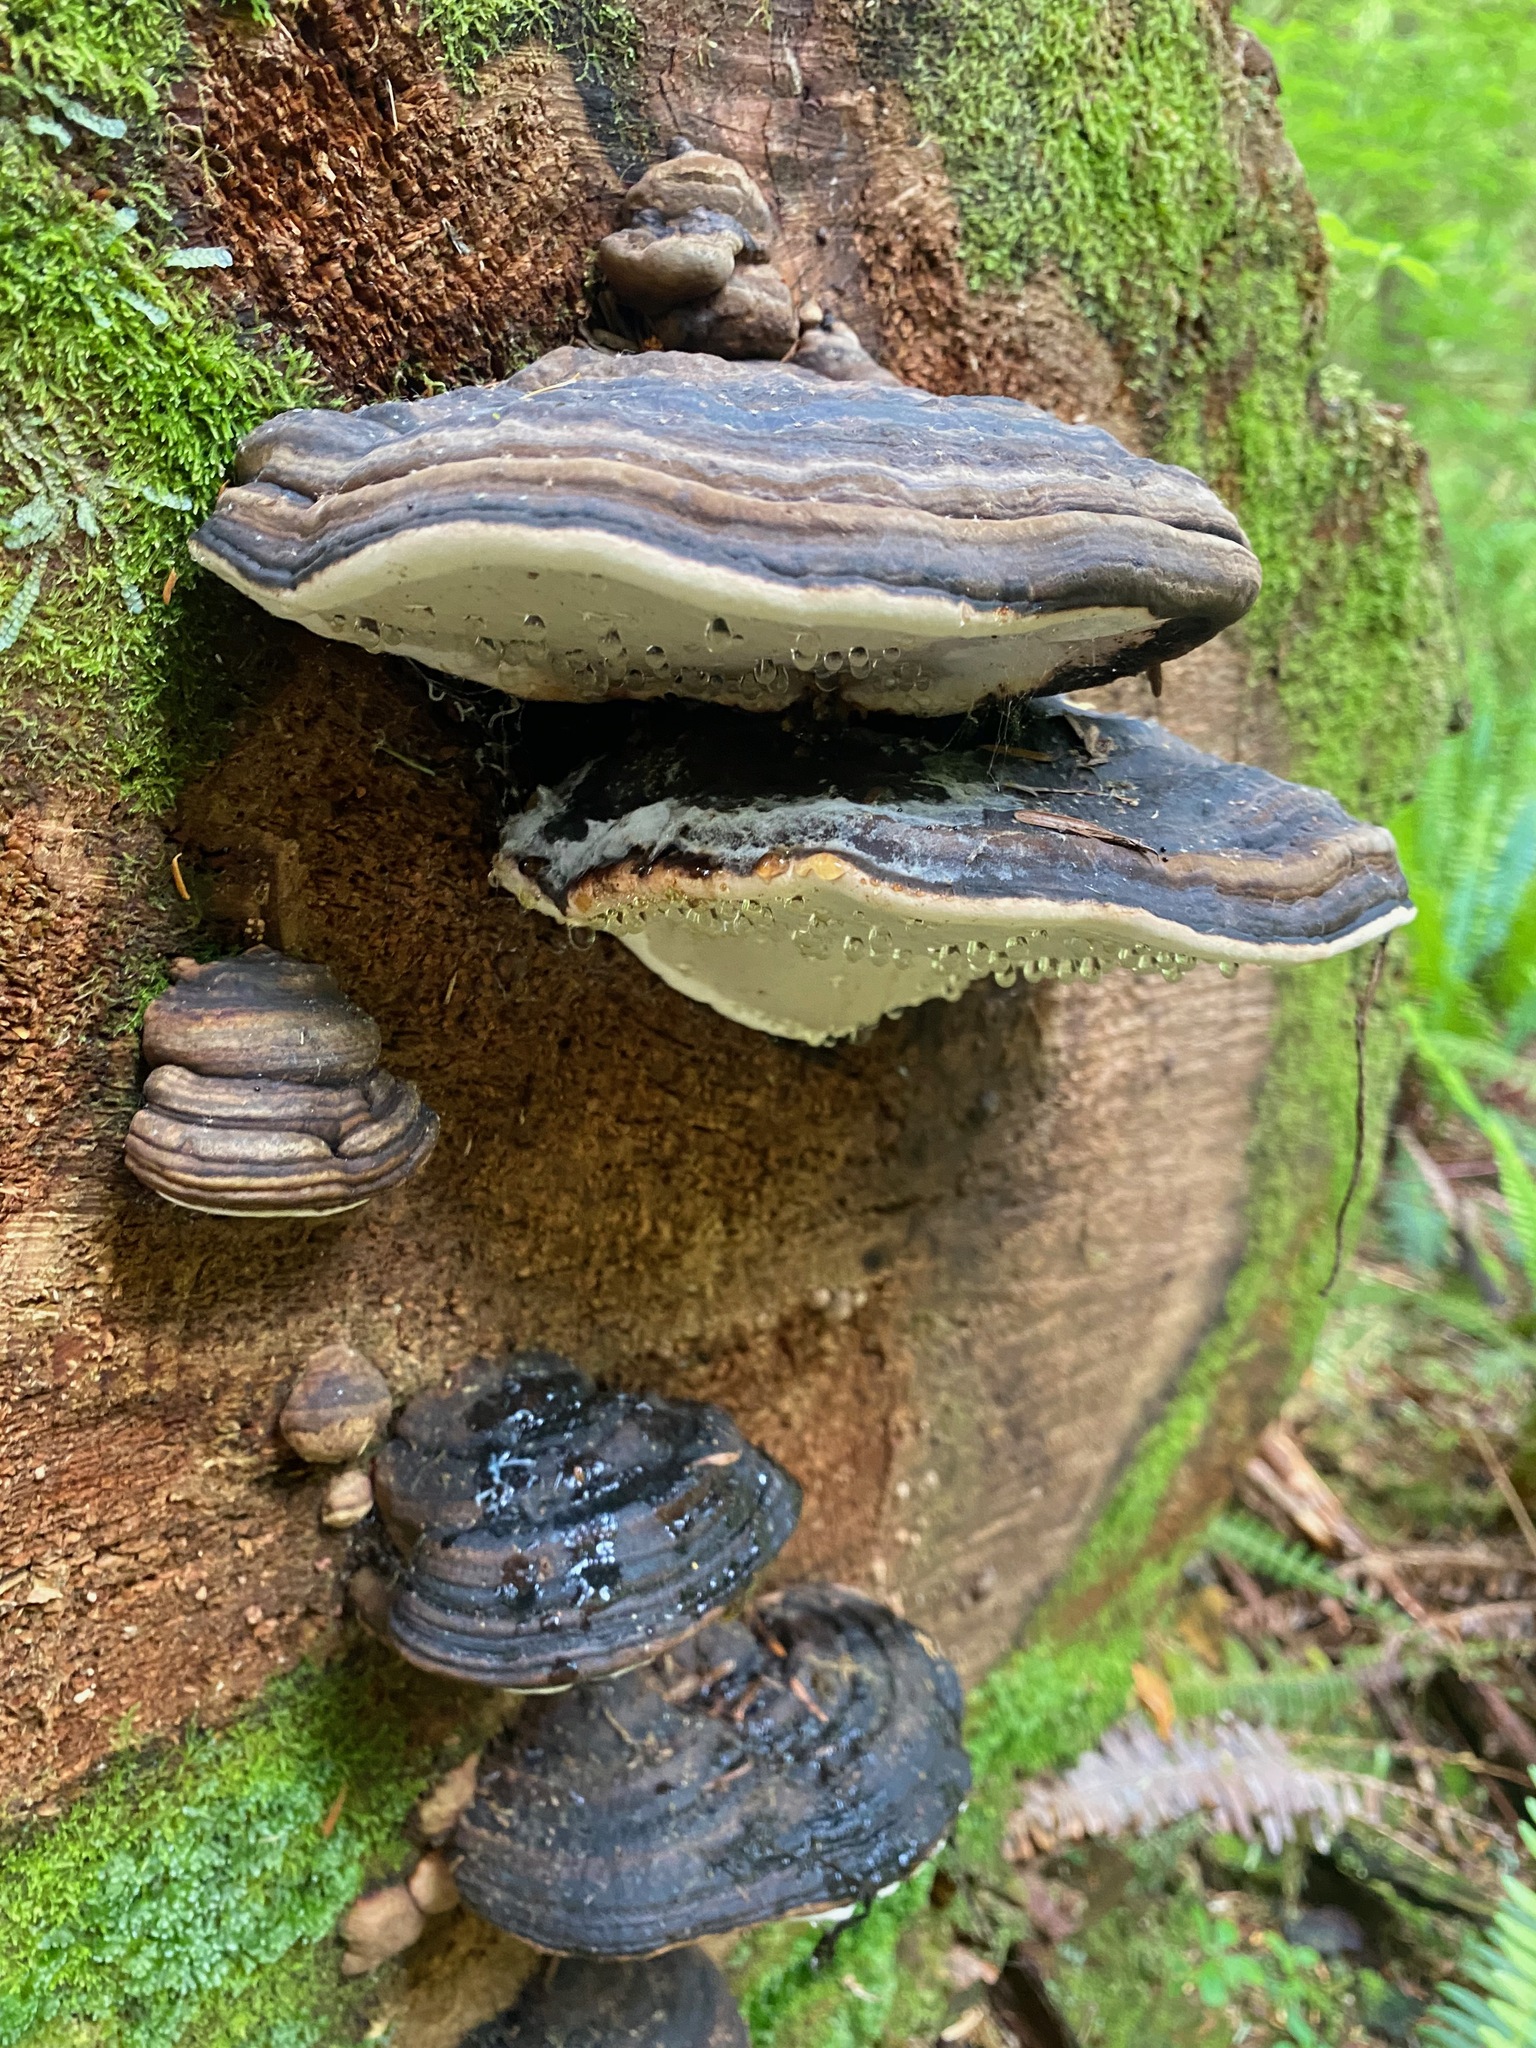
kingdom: Fungi
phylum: Basidiomycota
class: Agaricomycetes
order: Polyporales
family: Fomitopsidaceae
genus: Fomitopsis
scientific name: Fomitopsis ochracea
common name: American brown fomitopsis
